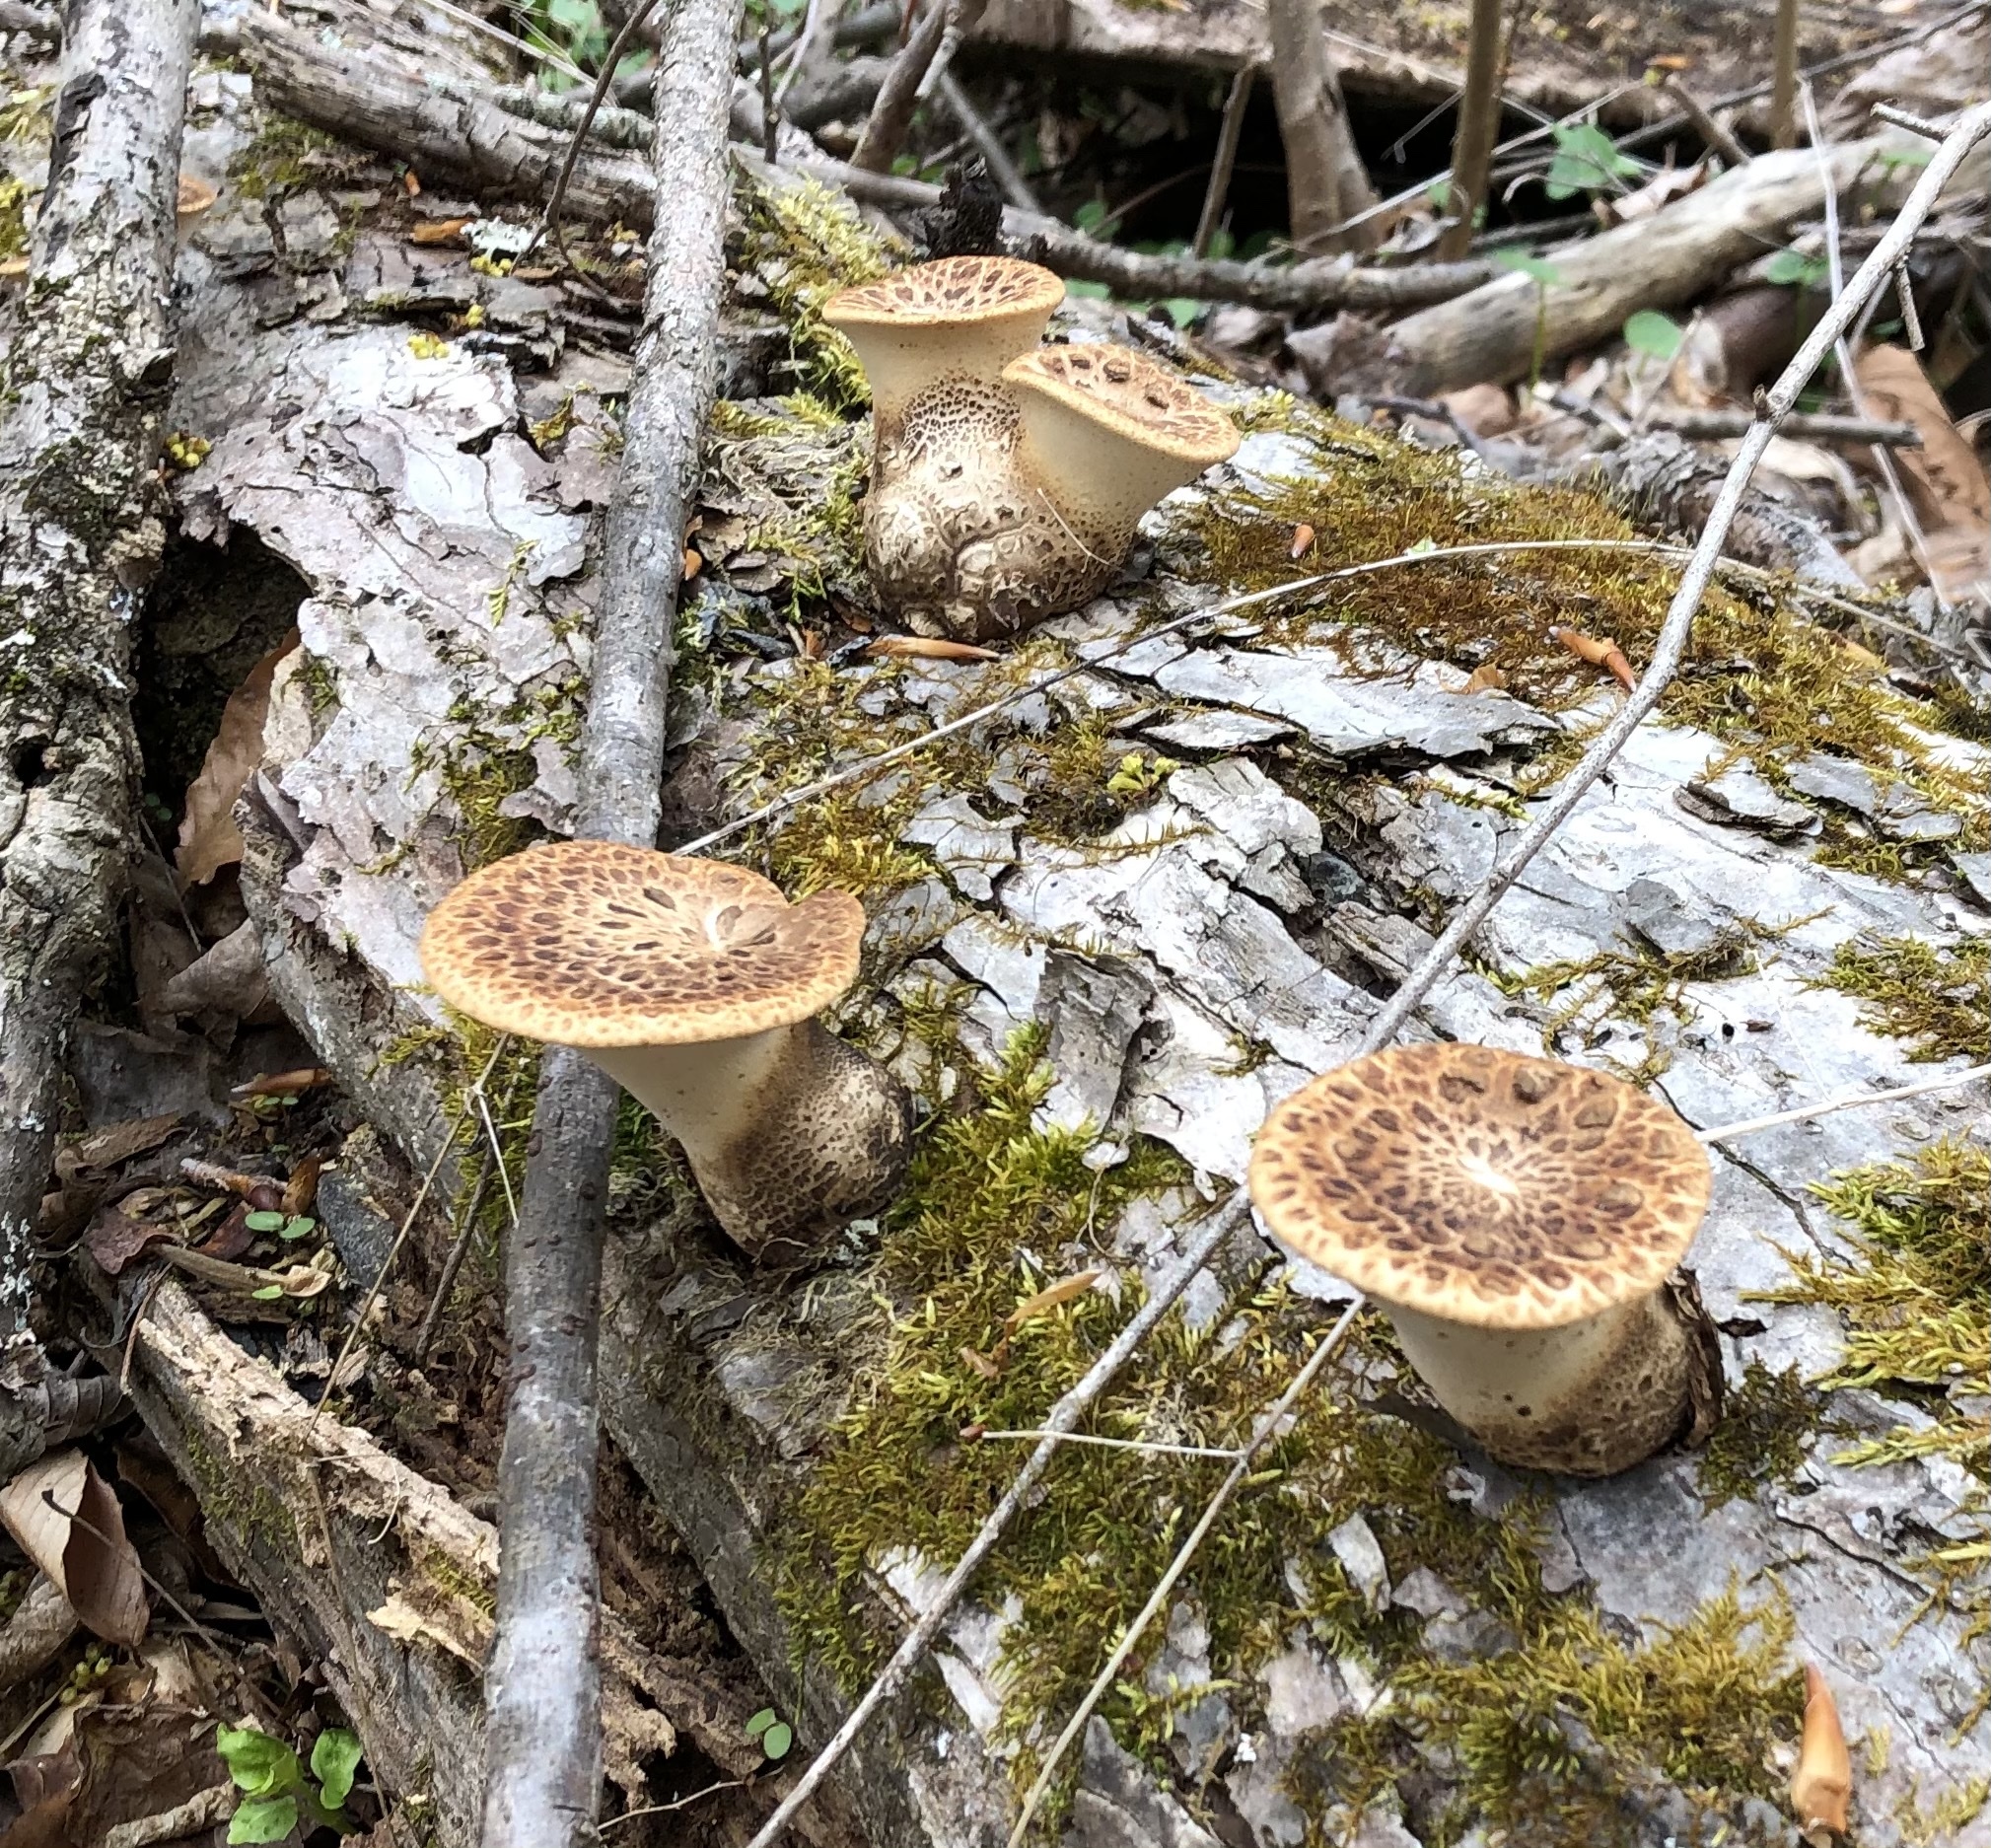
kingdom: Fungi
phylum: Basidiomycota
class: Agaricomycetes
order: Polyporales
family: Polyporaceae
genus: Cerioporus
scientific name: Cerioporus squamosus
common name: Dryad's saddle
